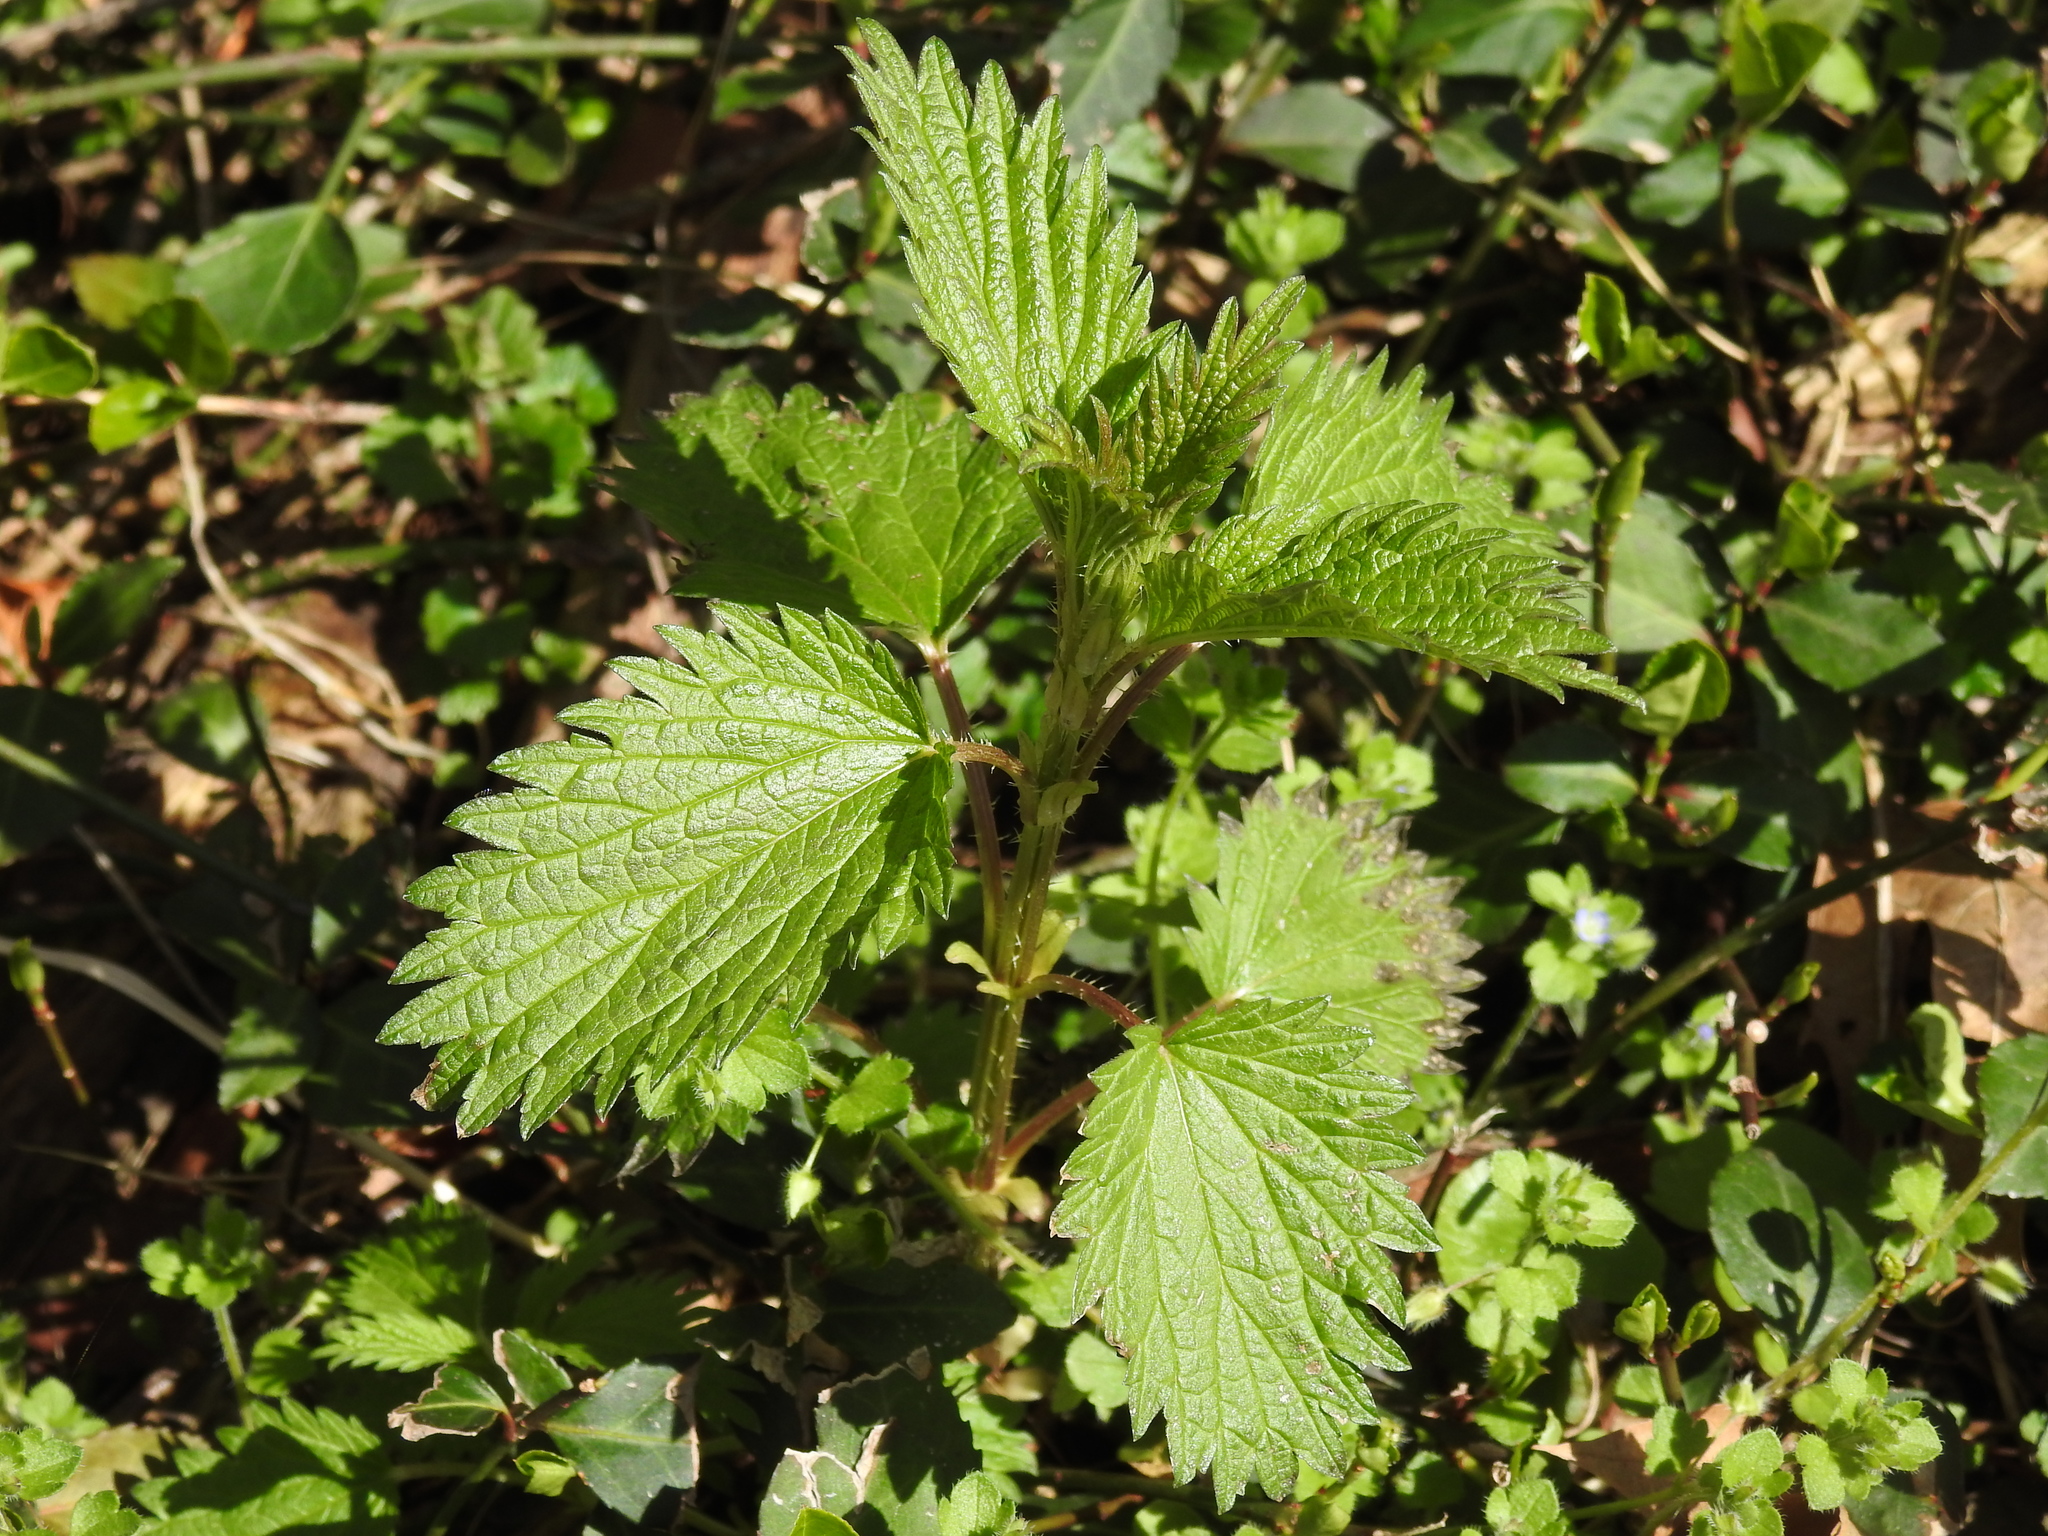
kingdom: Plantae
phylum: Tracheophyta
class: Magnoliopsida
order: Rosales
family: Urticaceae
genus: Urtica
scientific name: Urtica dioica
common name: Common nettle
